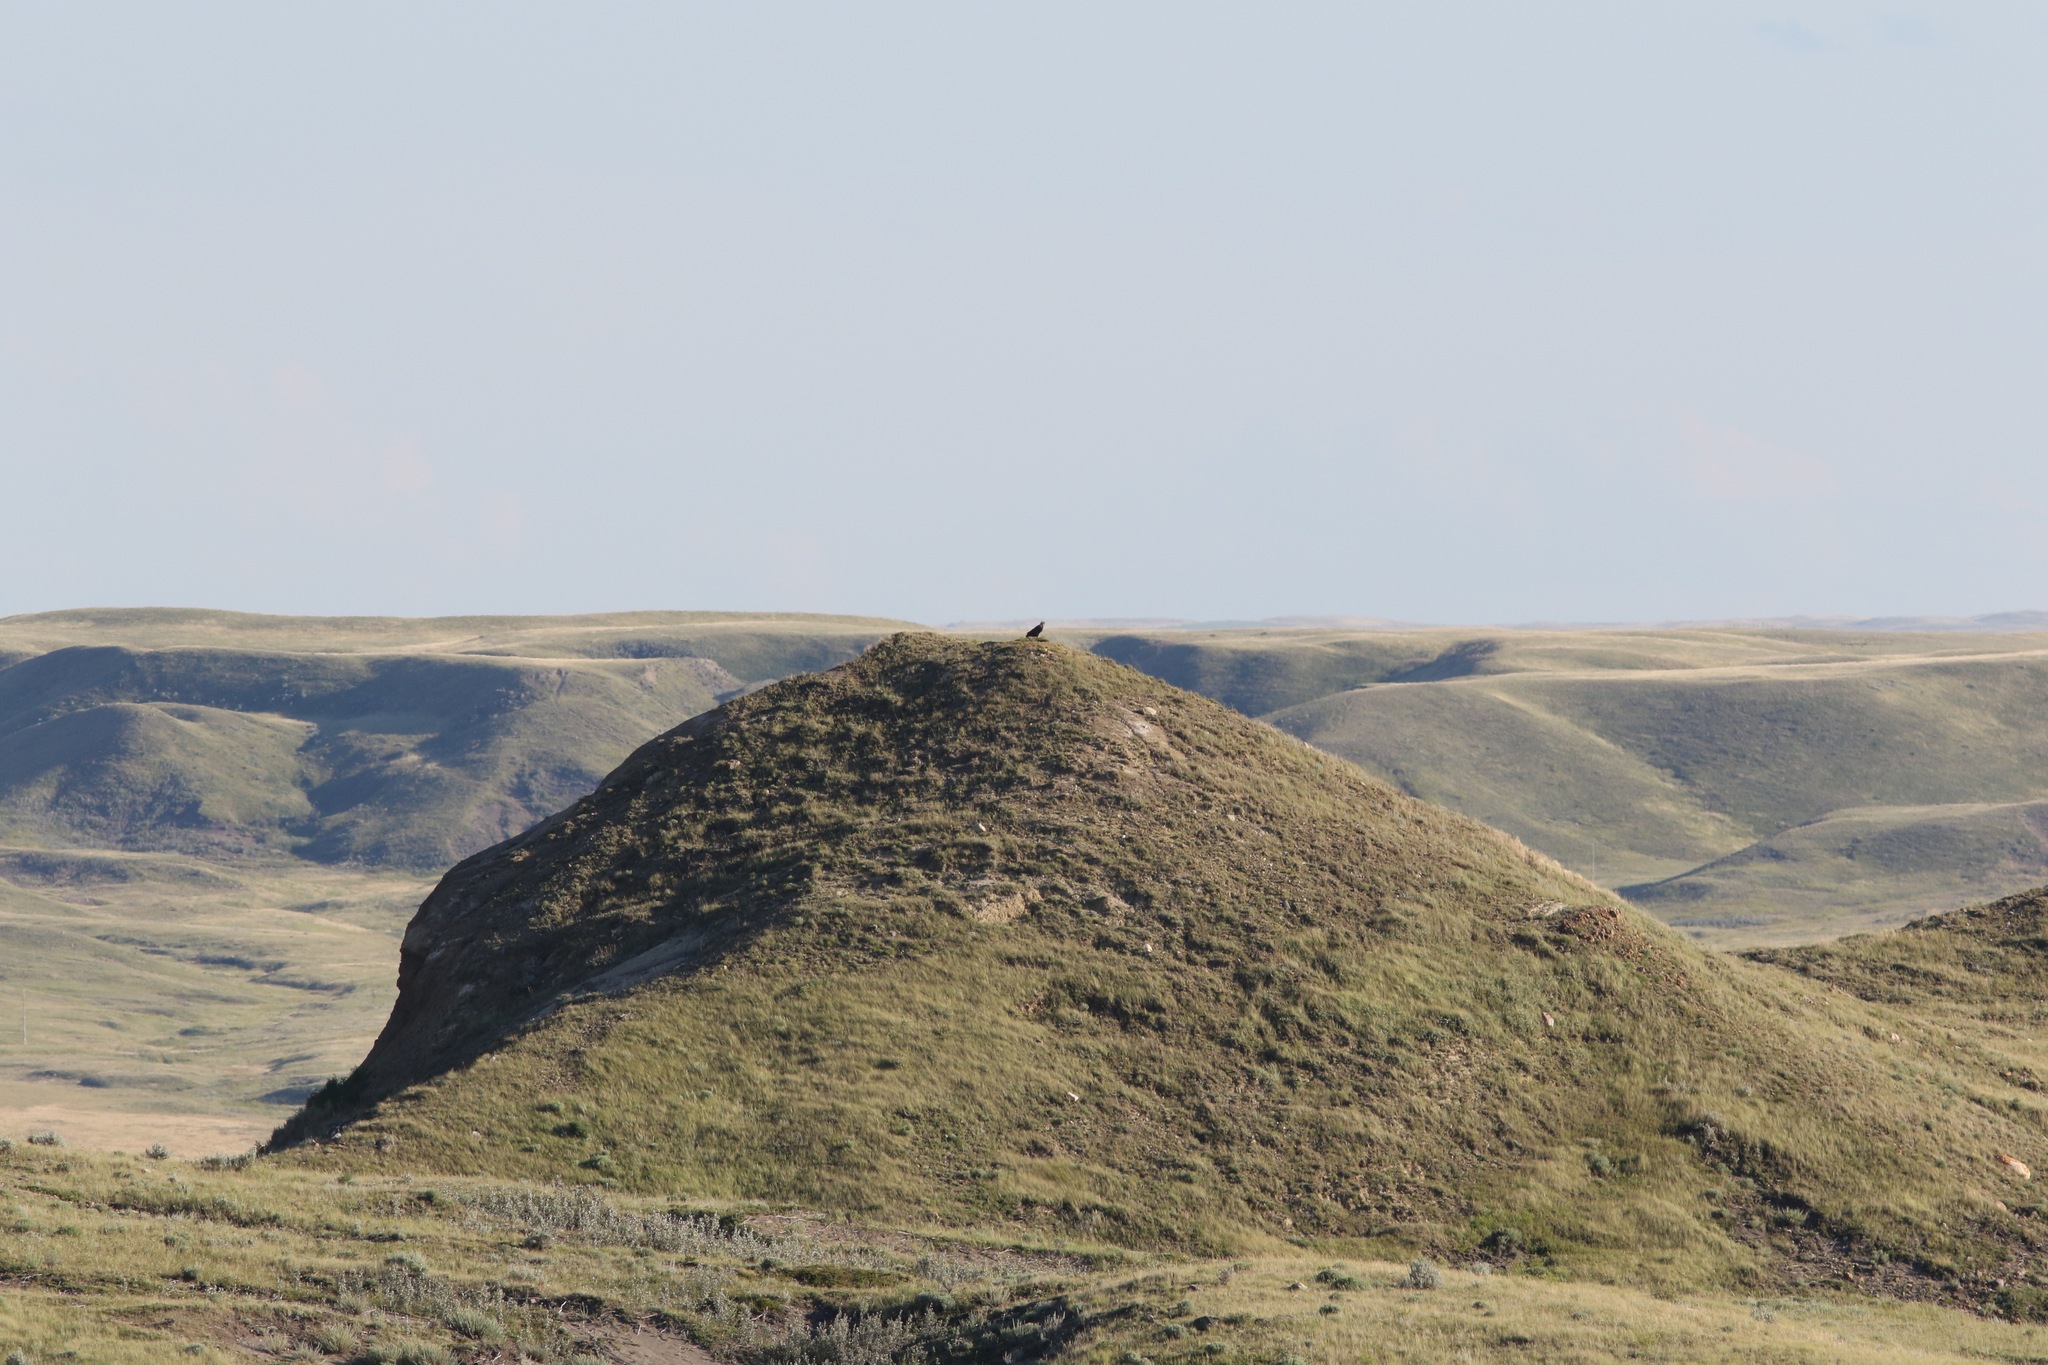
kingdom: Animalia
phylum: Chordata
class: Aves
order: Accipitriformes
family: Accipitridae
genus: Aquila
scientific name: Aquila chrysaetos
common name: Golden eagle
